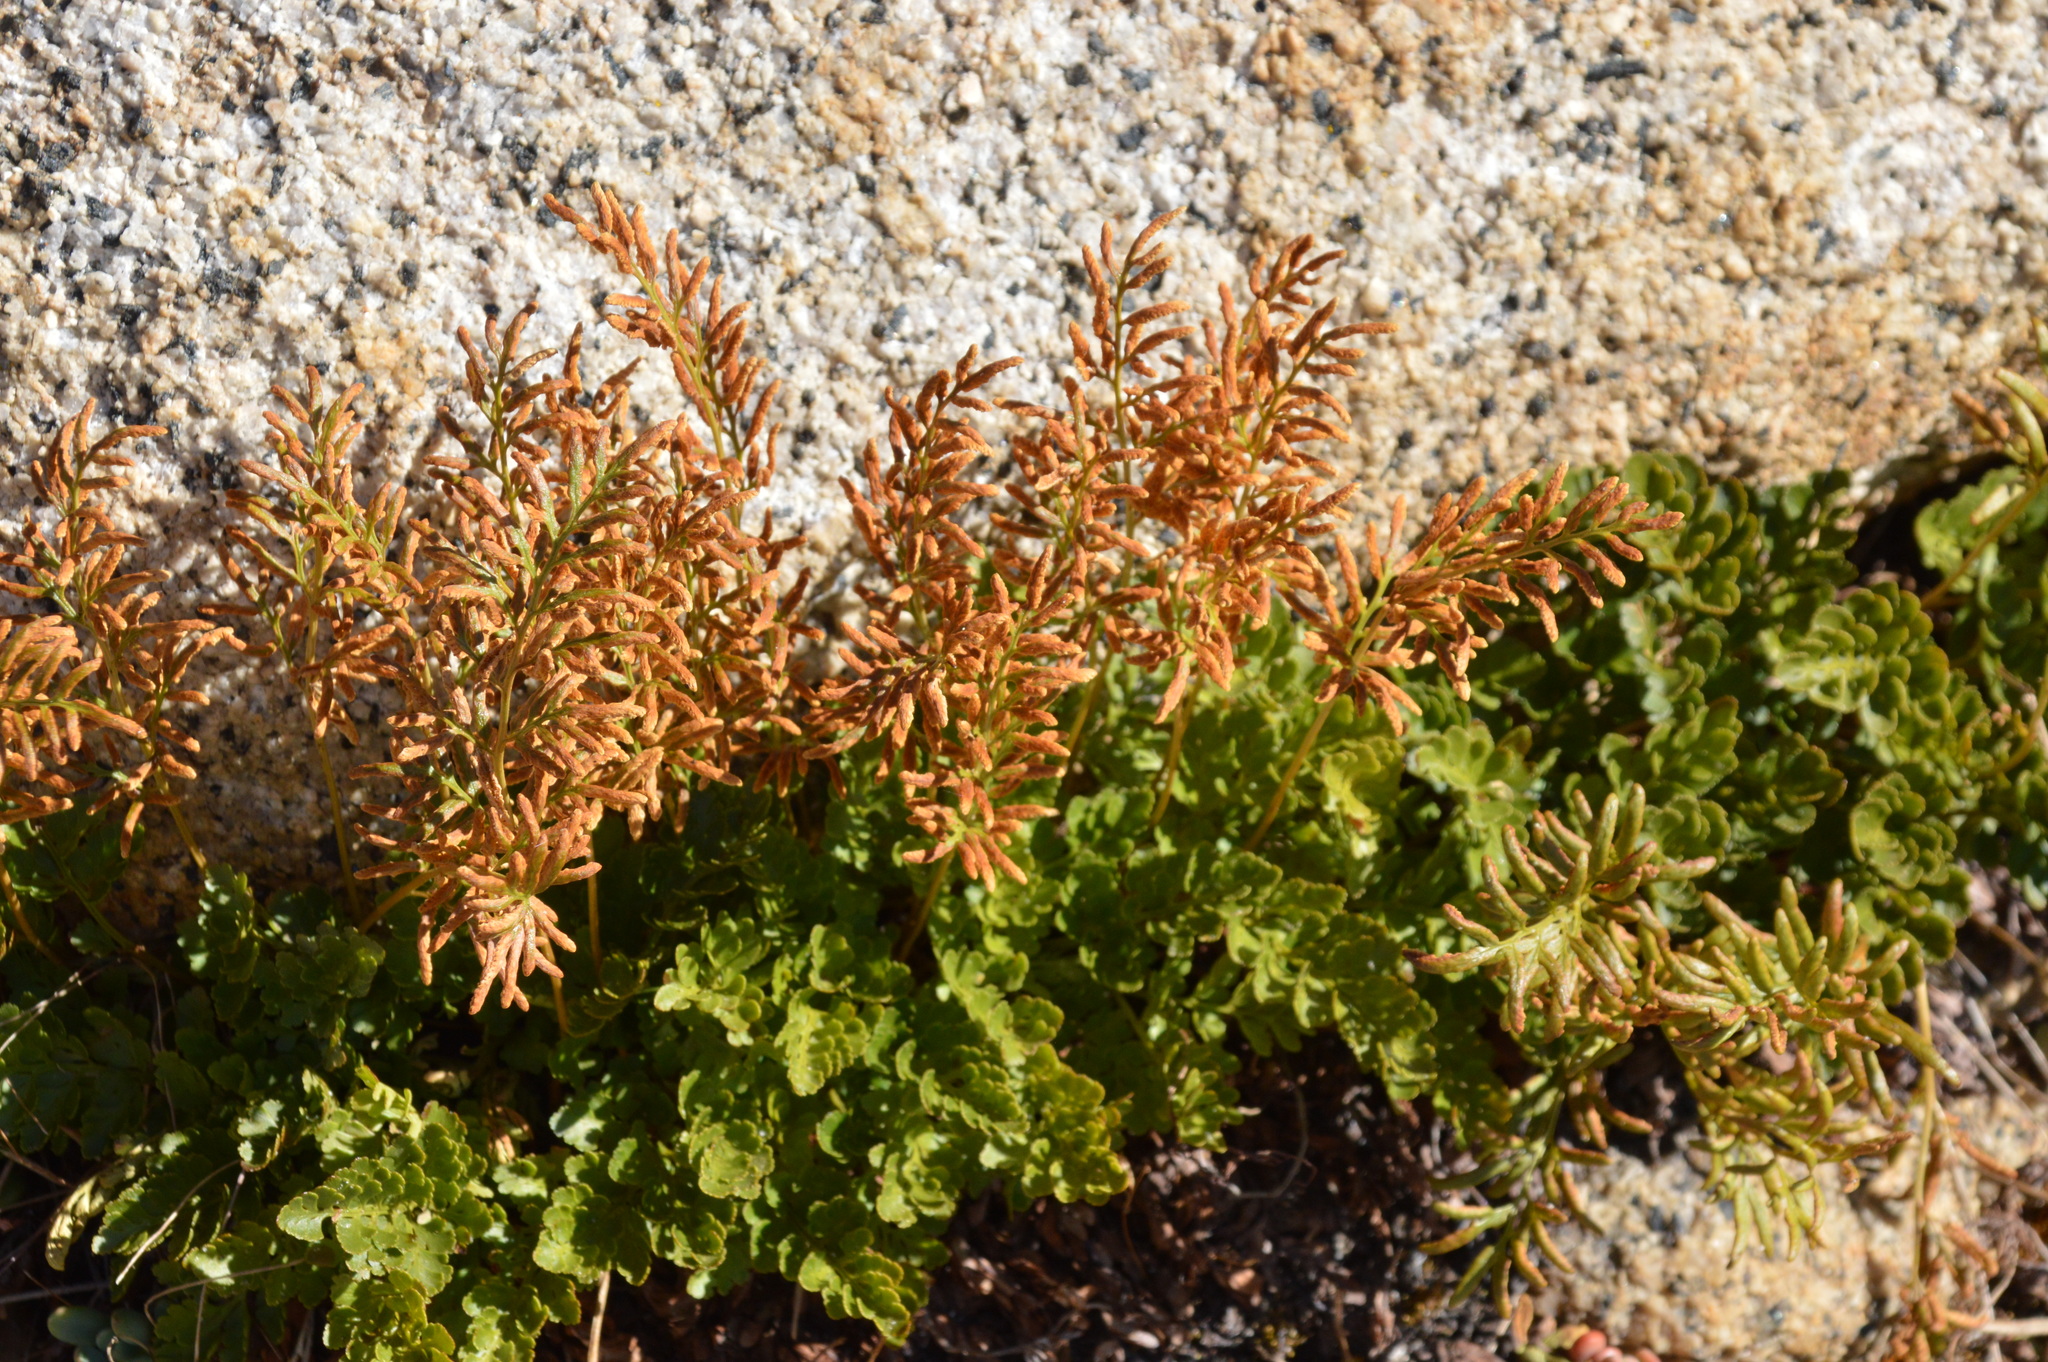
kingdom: Plantae
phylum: Tracheophyta
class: Polypodiopsida
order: Polypodiales
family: Pteridaceae
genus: Cryptogramma
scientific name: Cryptogramma acrostichoides
